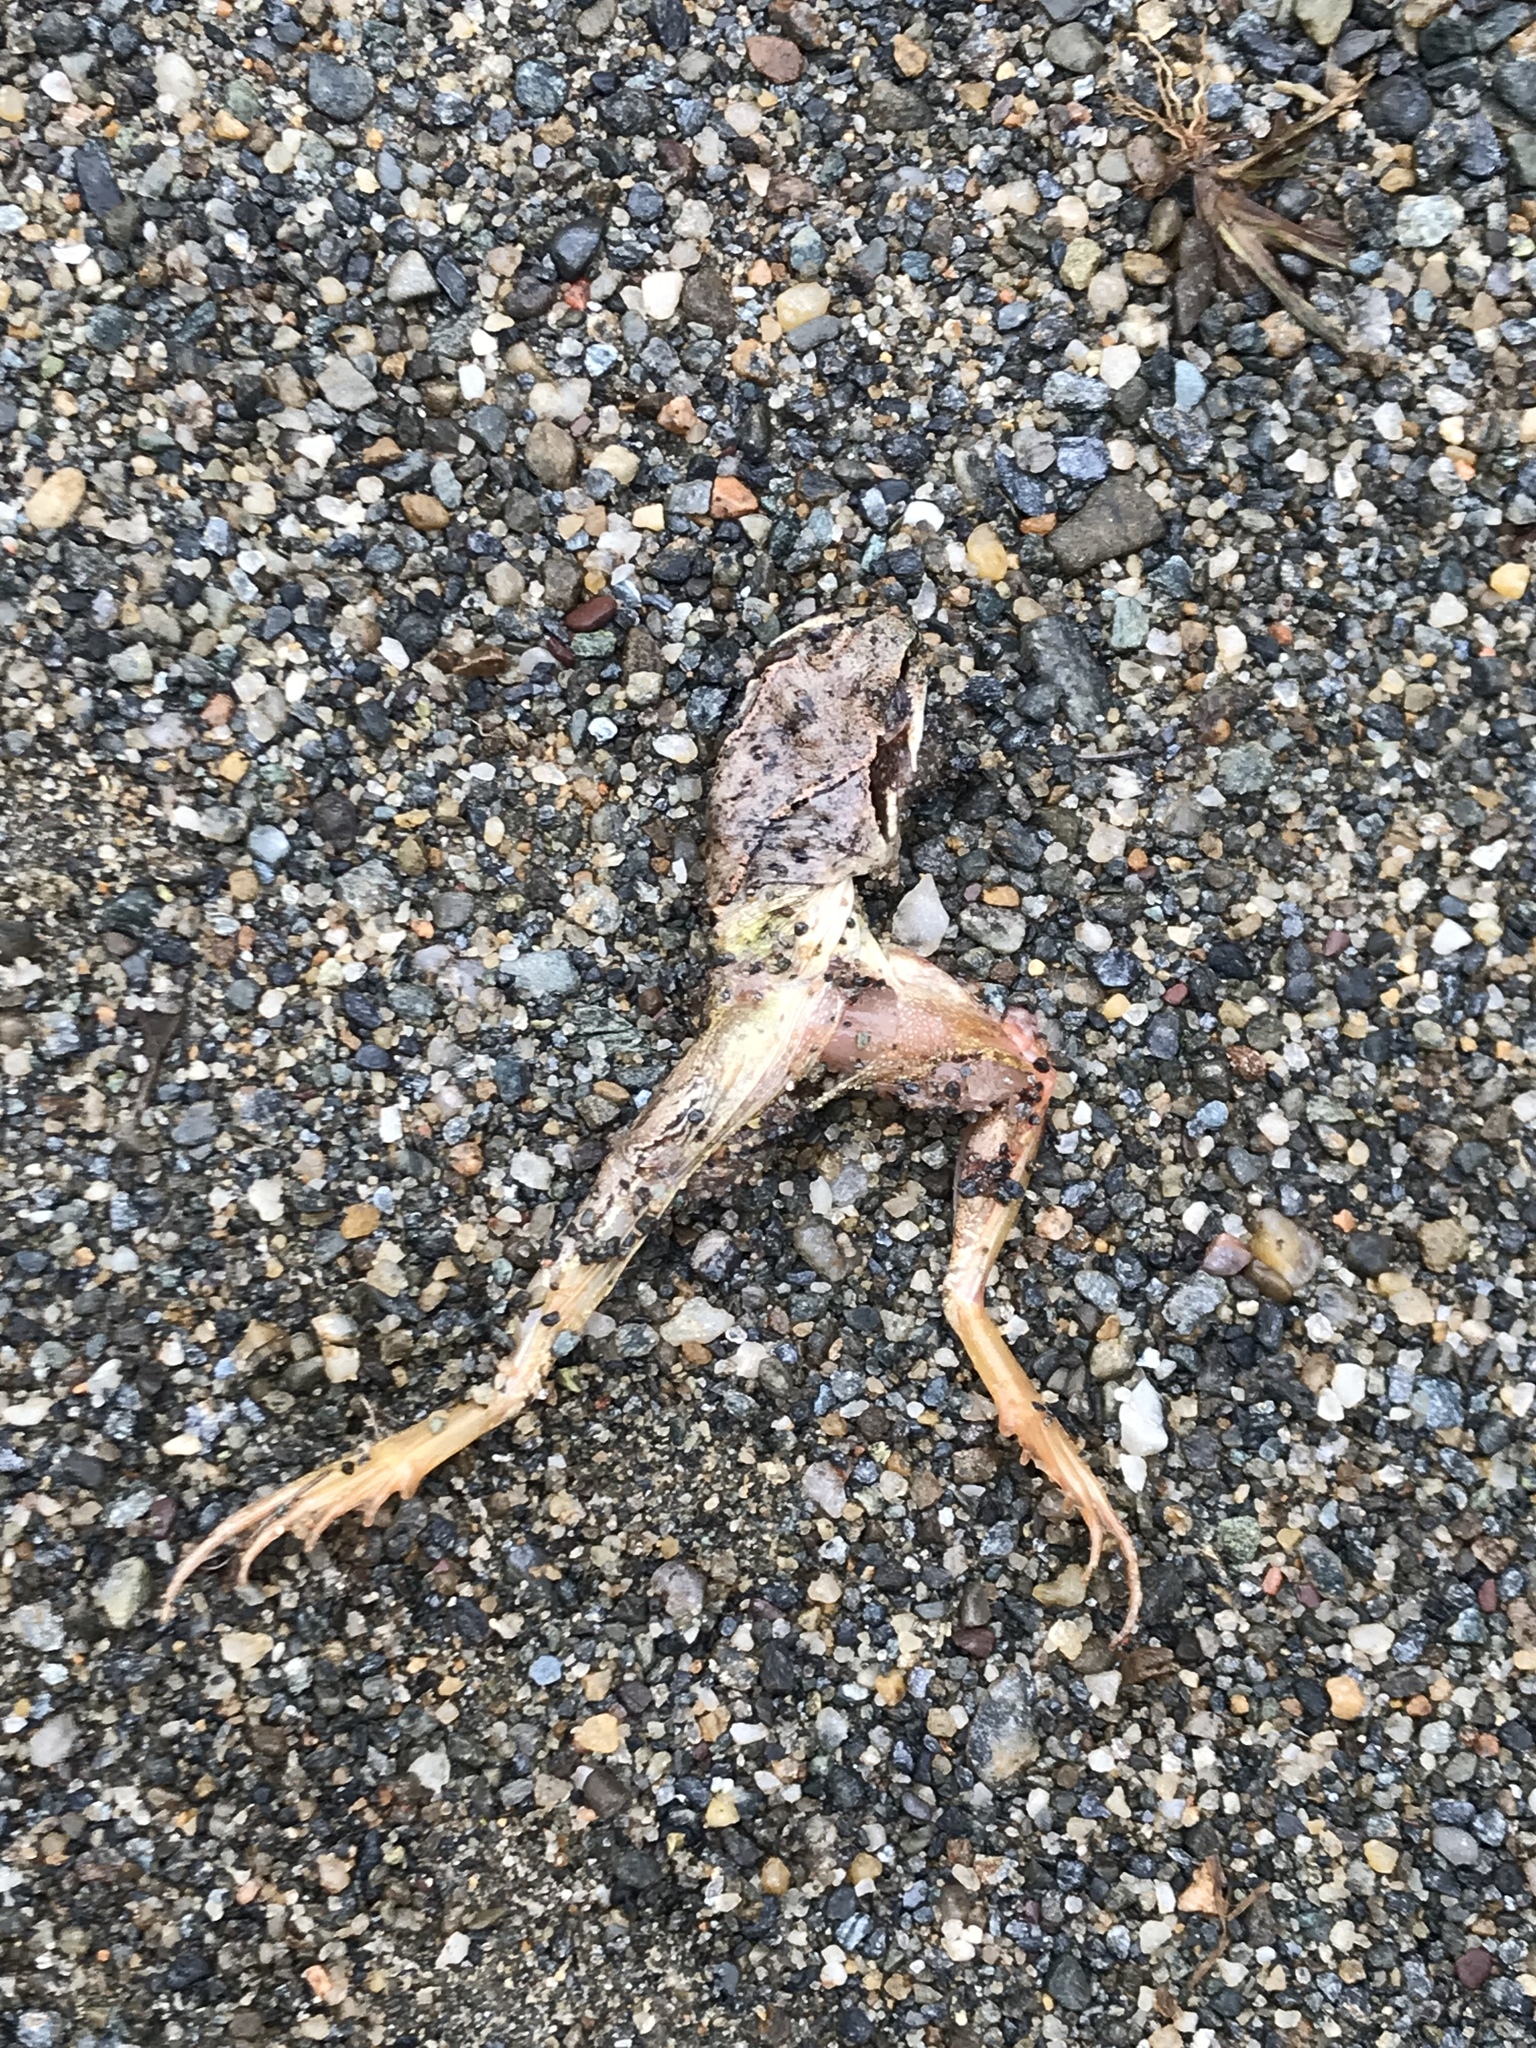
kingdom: Animalia
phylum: Chordata
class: Amphibia
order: Anura
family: Ranidae
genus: Lithobates
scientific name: Lithobates sylvaticus
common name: Wood frog
